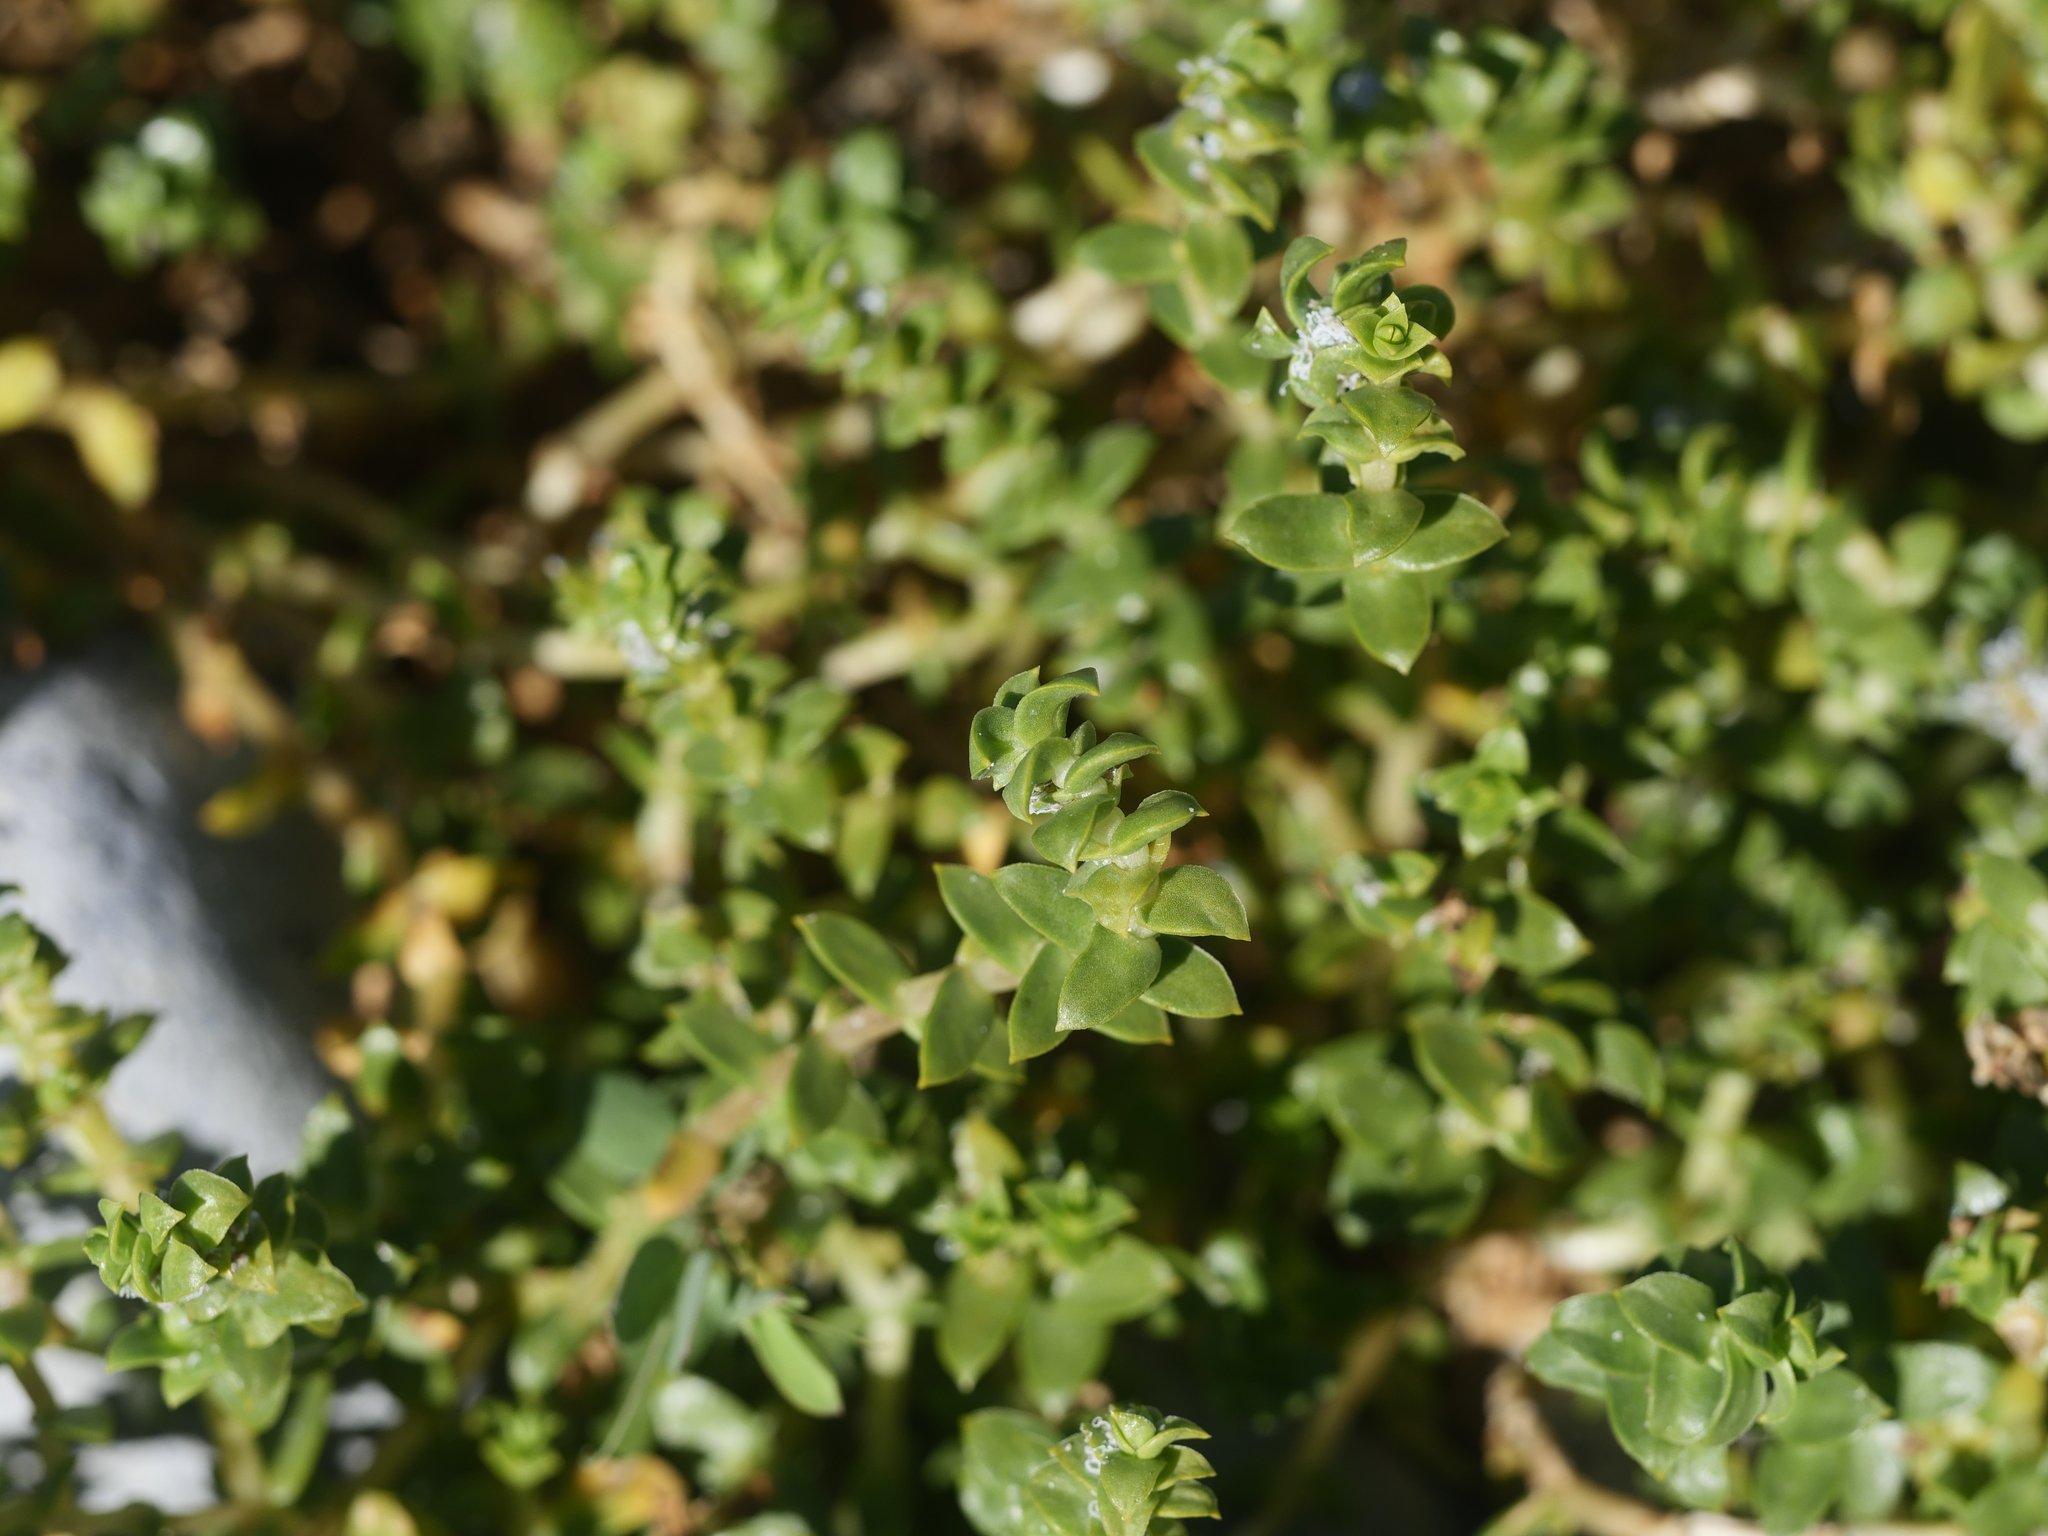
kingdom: Plantae
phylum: Tracheophyta
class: Magnoliopsida
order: Caryophyllales
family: Caryophyllaceae
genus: Honckenya
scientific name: Honckenya peploides
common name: Sea sandwort
